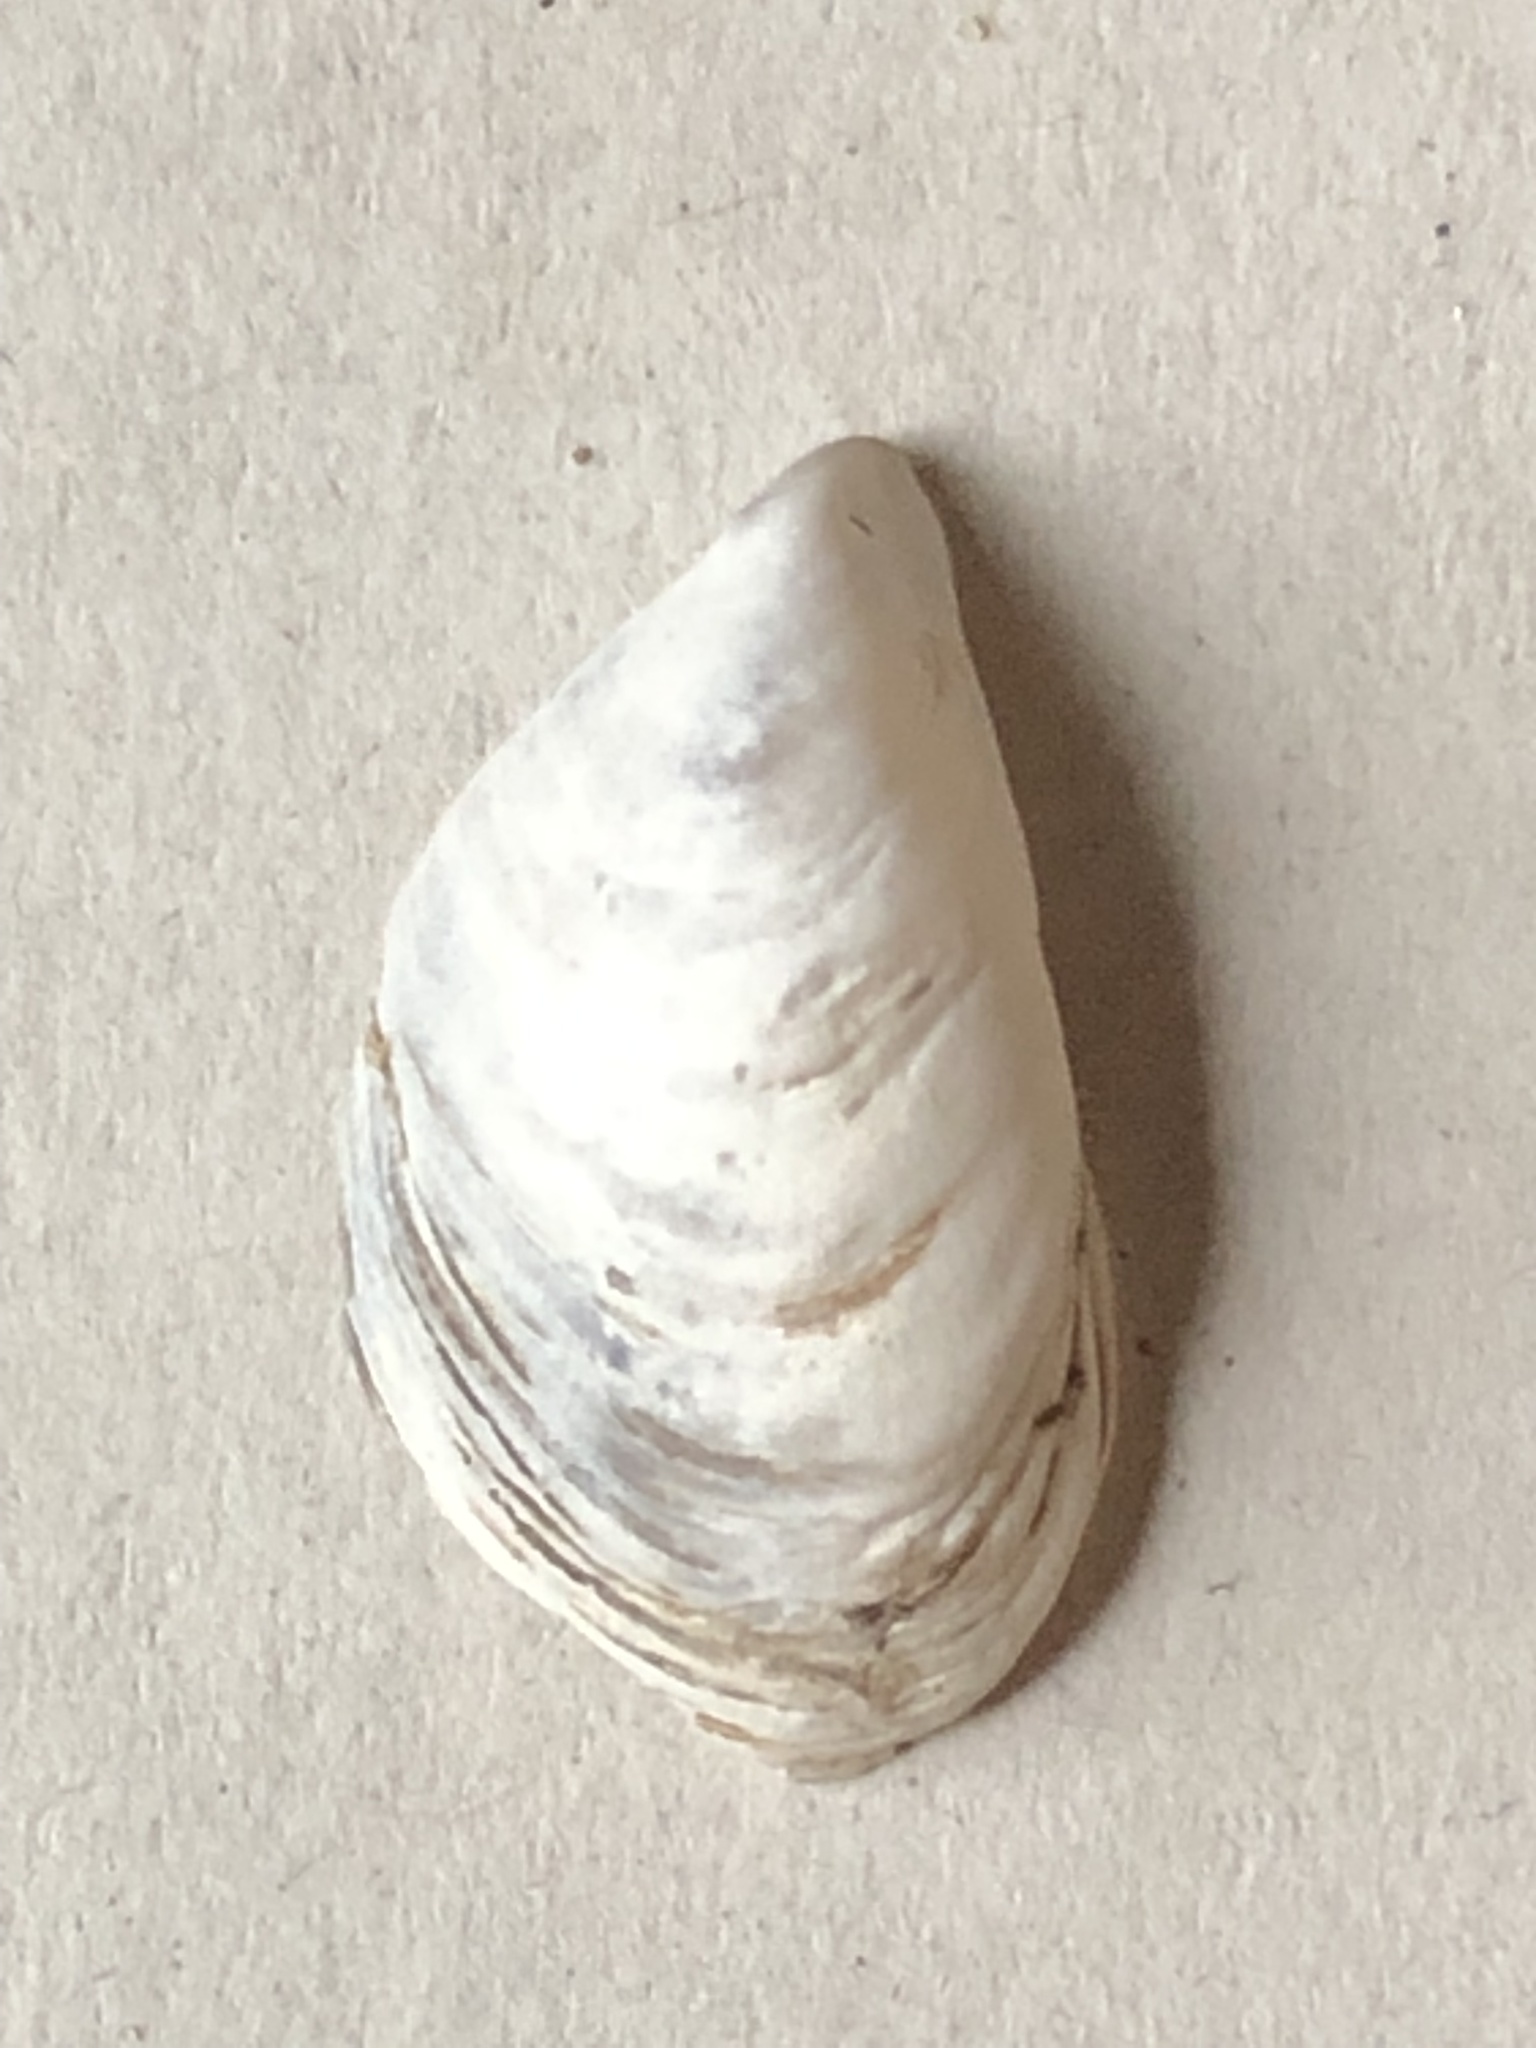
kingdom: Animalia
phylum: Mollusca
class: Bivalvia
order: Myida
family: Dreissenidae
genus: Dreissena
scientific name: Dreissena bugensis
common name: Quagga mussel
